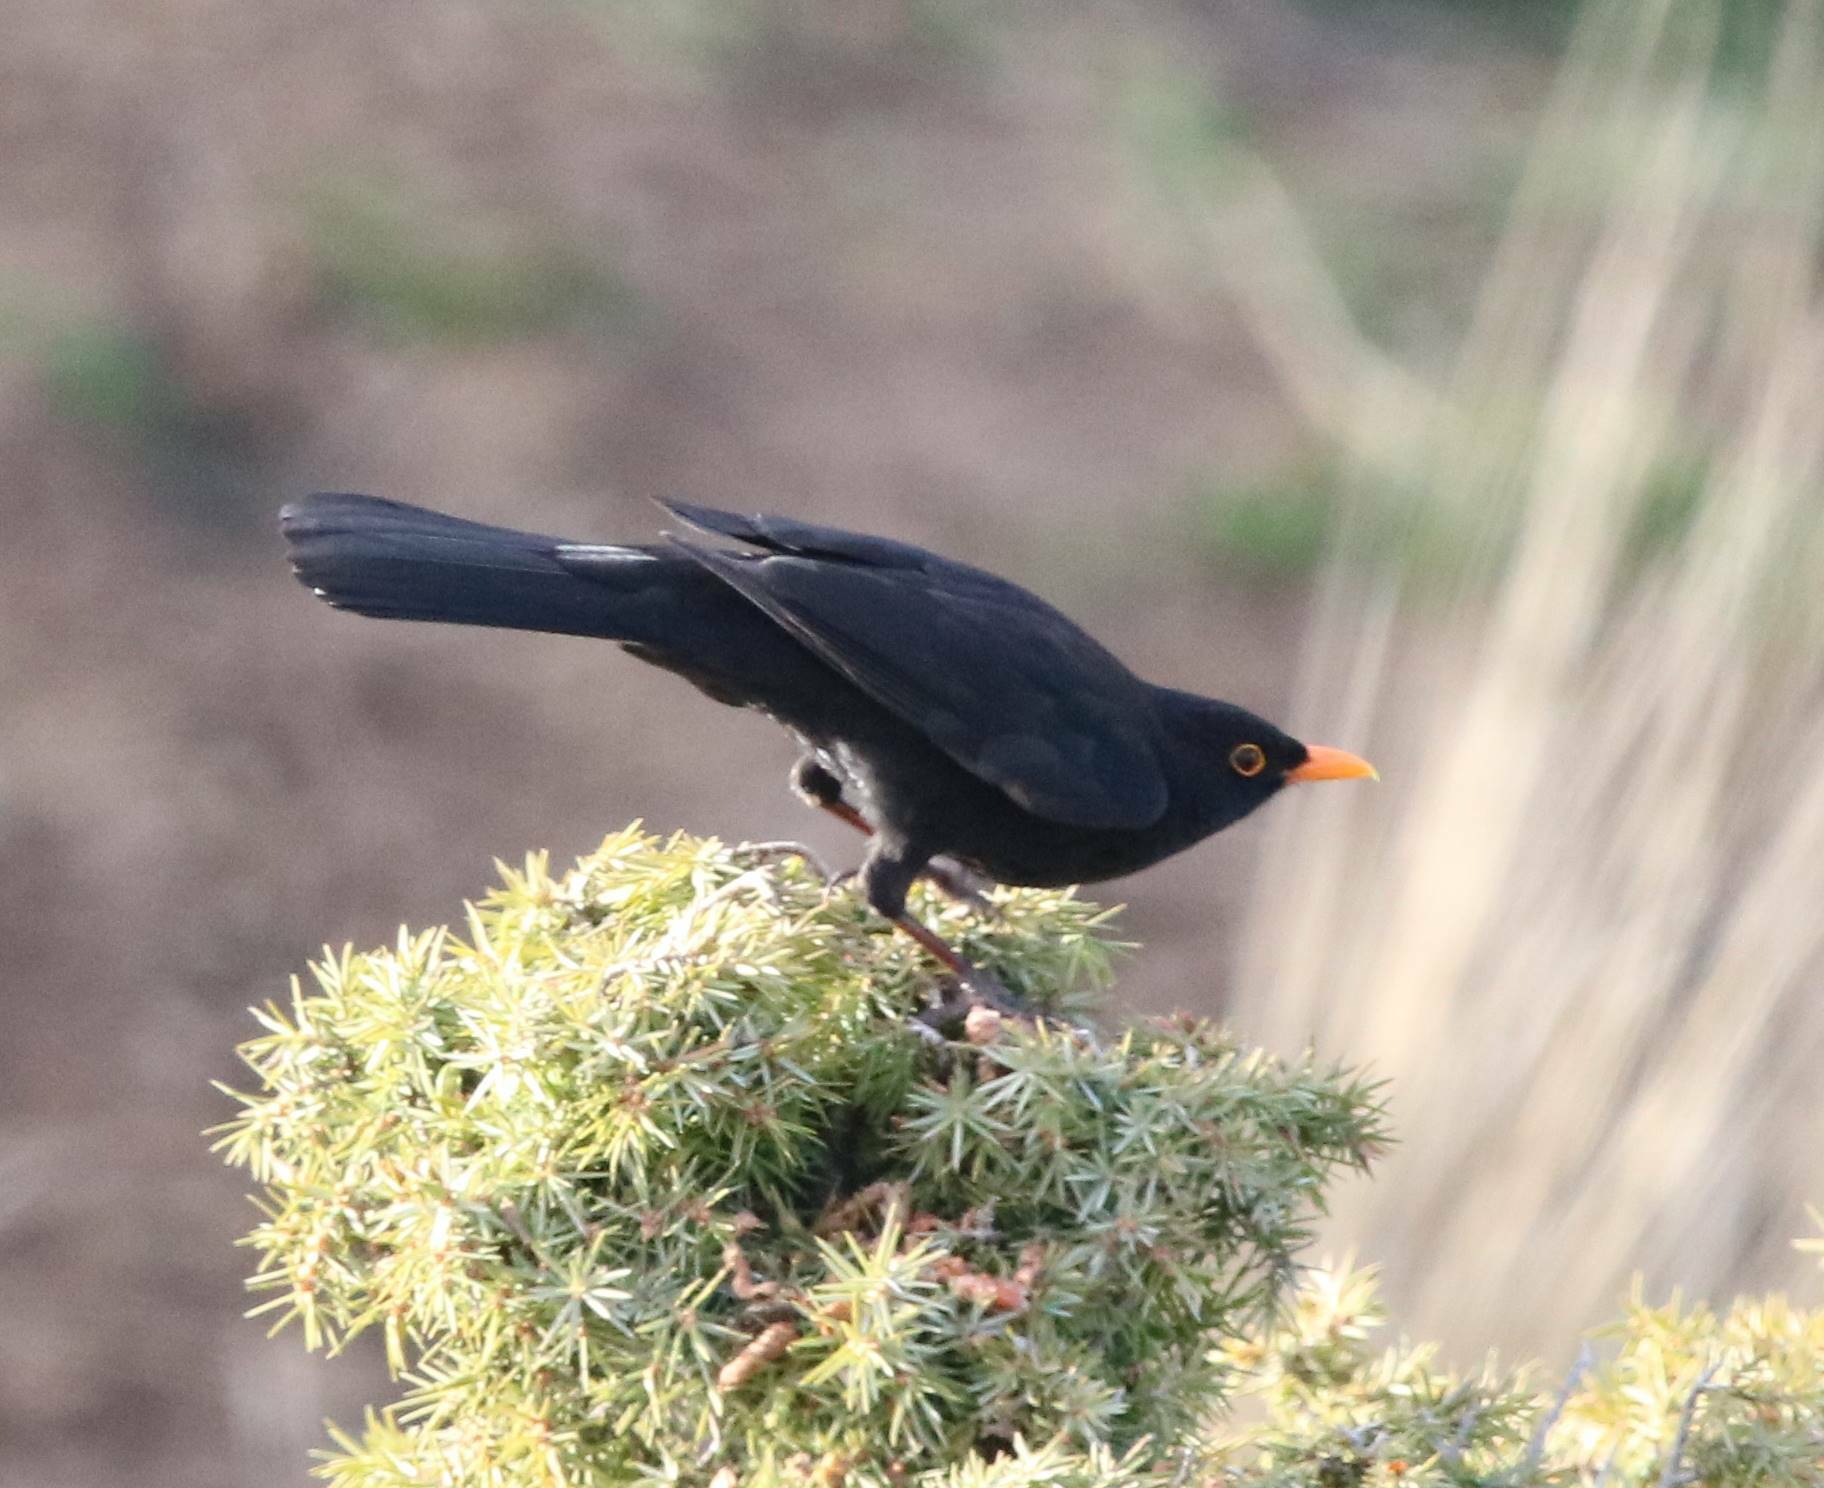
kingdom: Animalia
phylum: Chordata
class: Aves
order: Passeriformes
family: Turdidae
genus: Turdus
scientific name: Turdus merula
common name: Common blackbird
